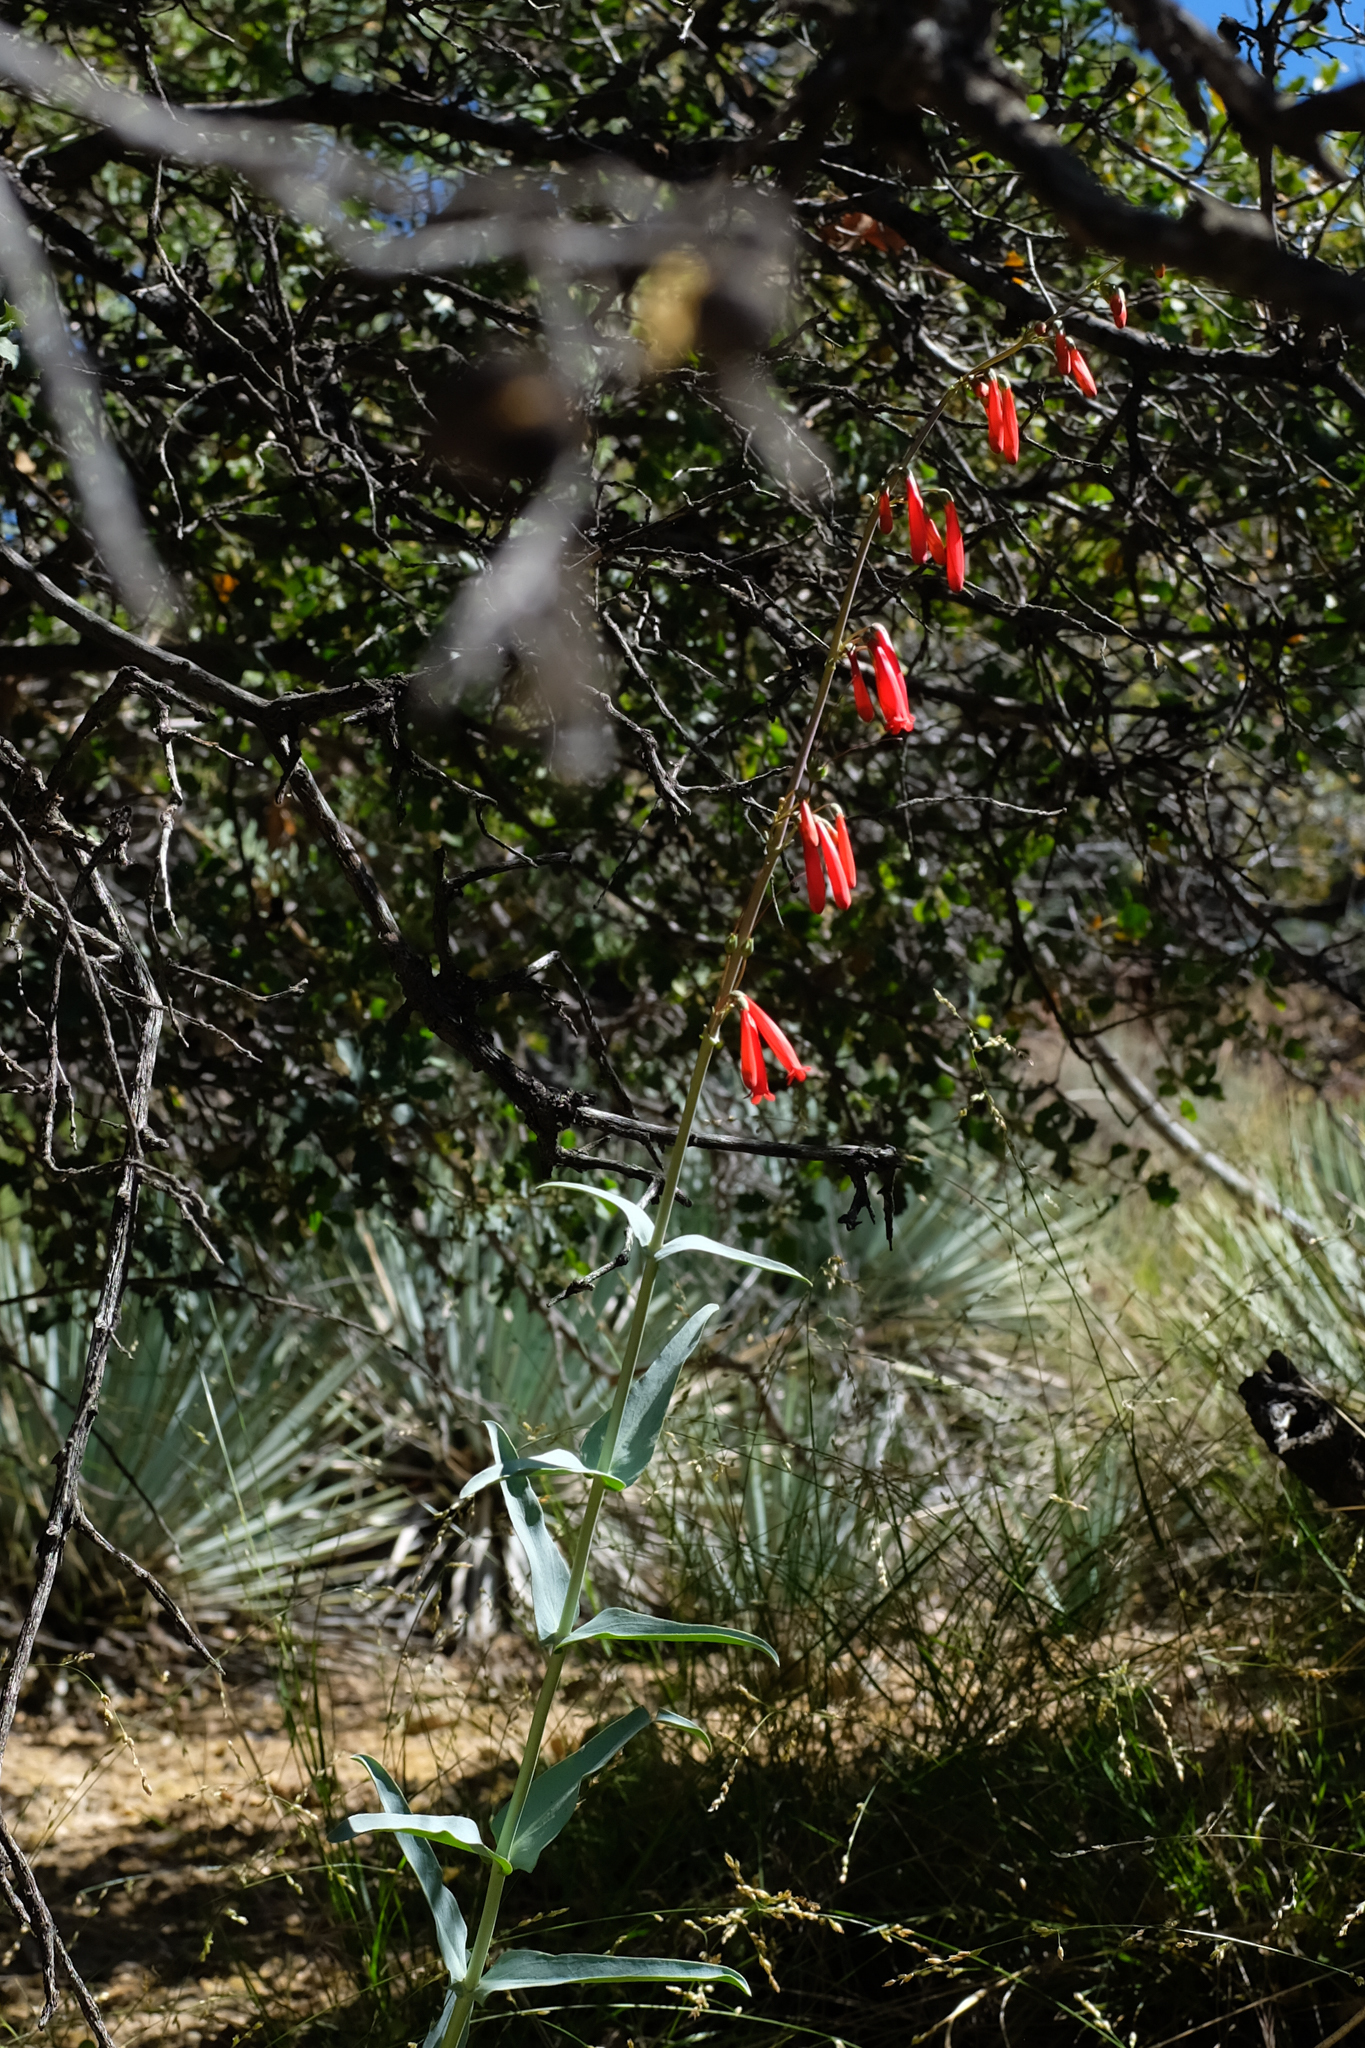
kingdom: Plantae
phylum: Tracheophyta
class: Magnoliopsida
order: Lamiales
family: Plantaginaceae
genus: Penstemon
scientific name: Penstemon centranthifolius
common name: Scarlet bugler
